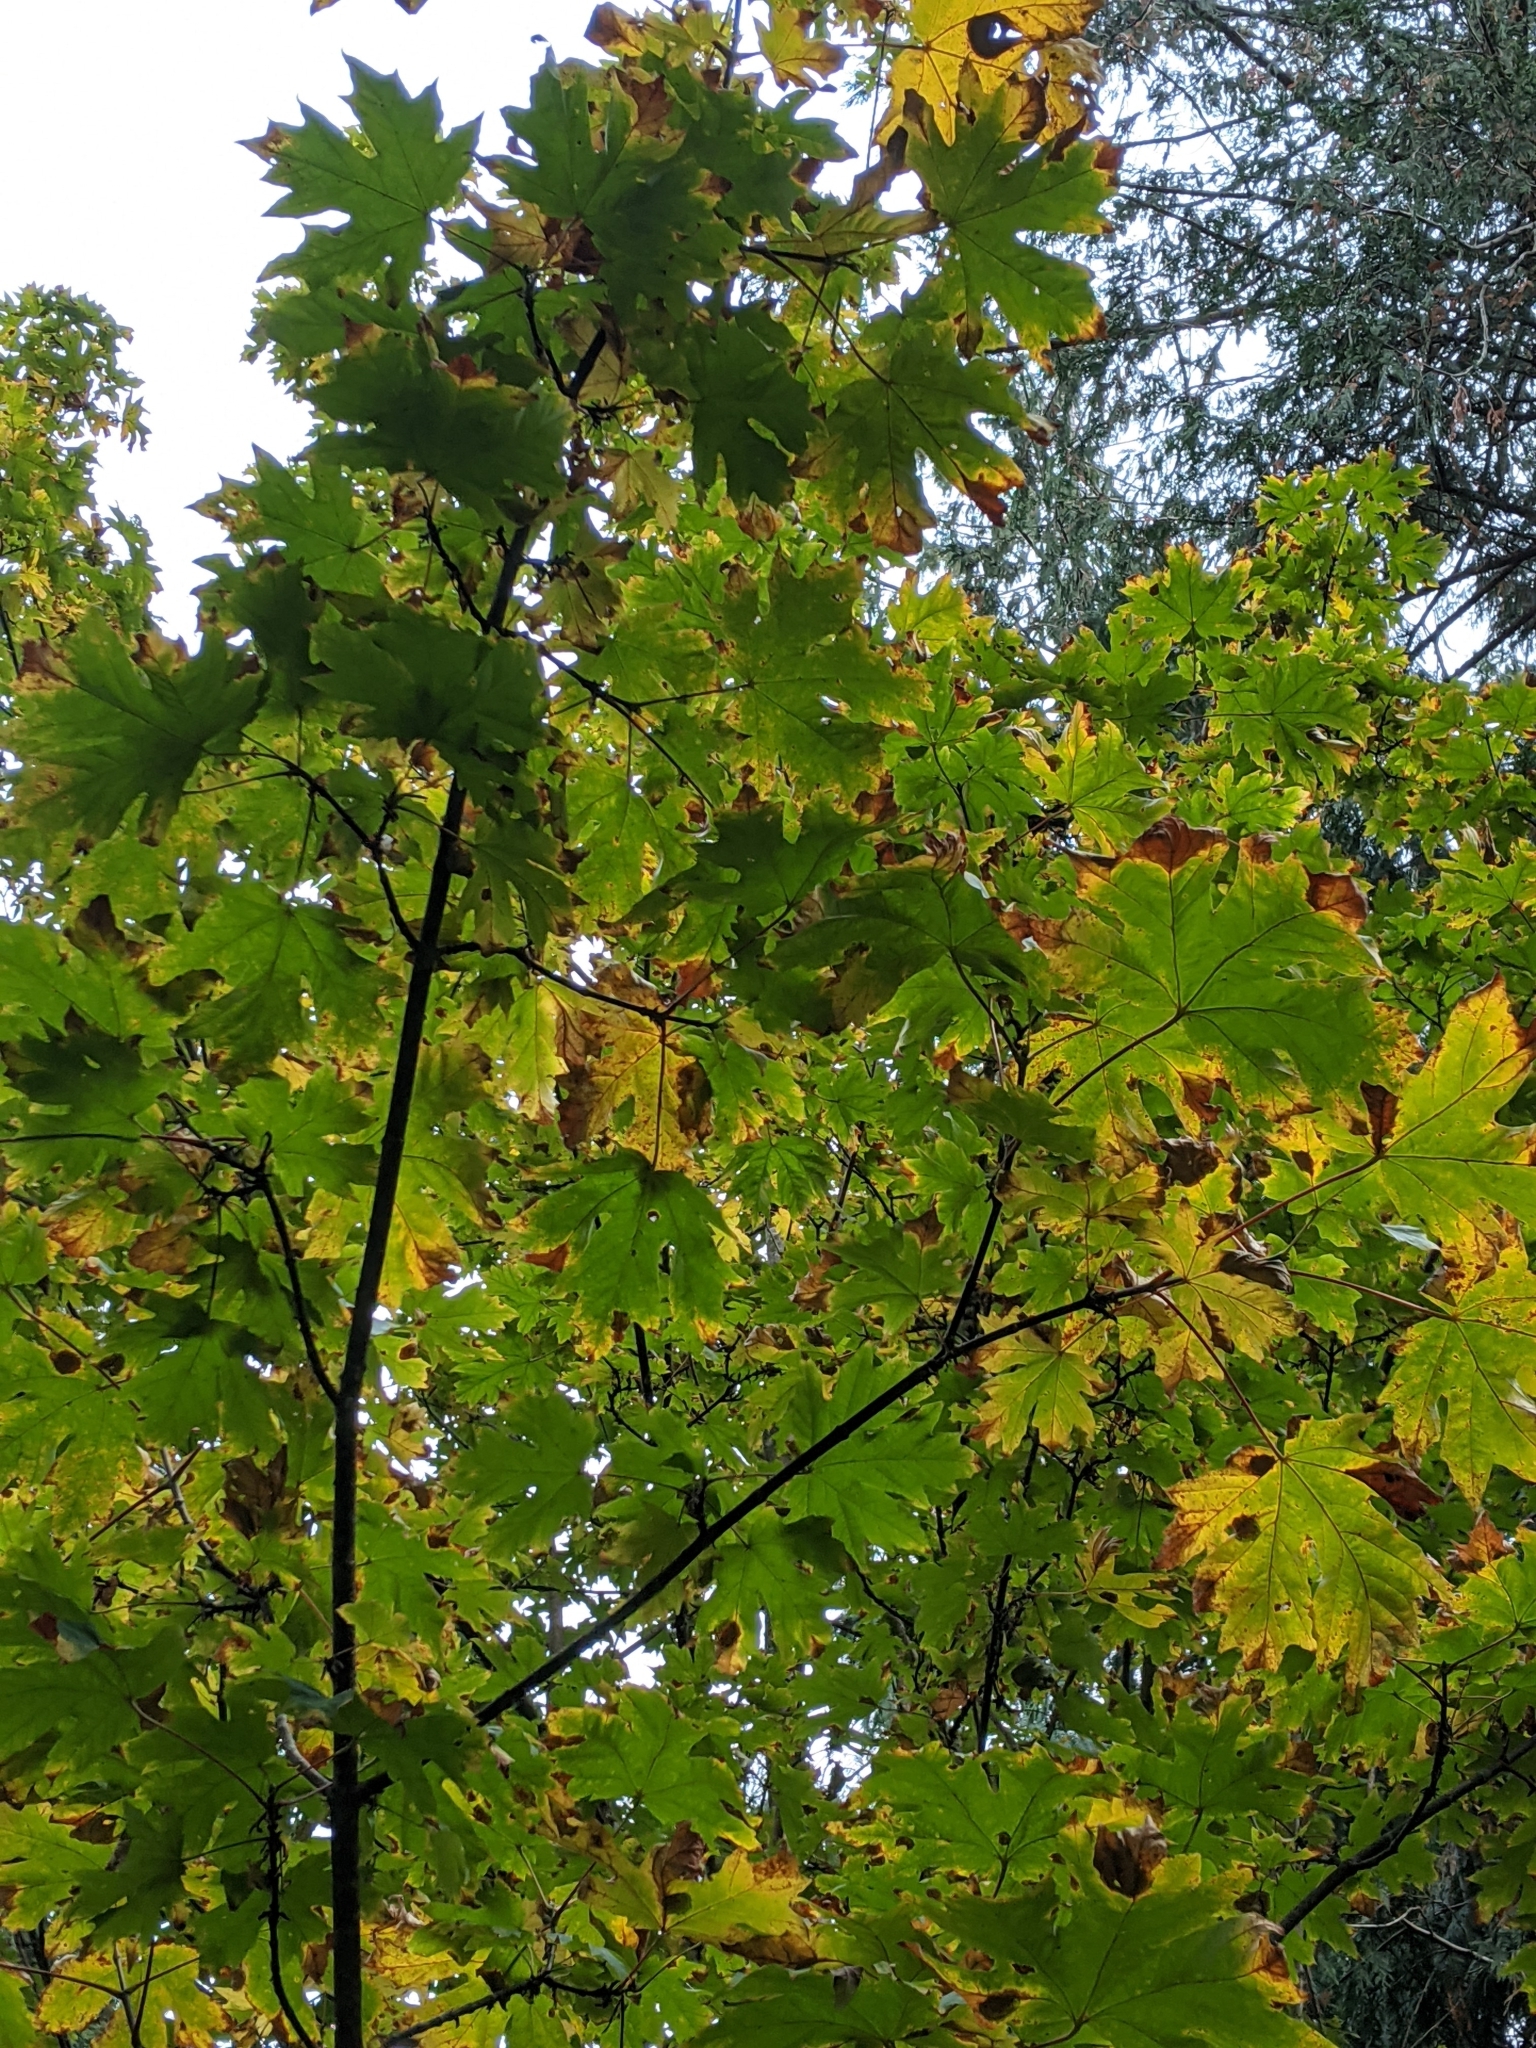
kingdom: Plantae
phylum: Tracheophyta
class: Magnoliopsida
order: Sapindales
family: Sapindaceae
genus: Acer
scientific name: Acer macrophyllum
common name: Oregon maple
